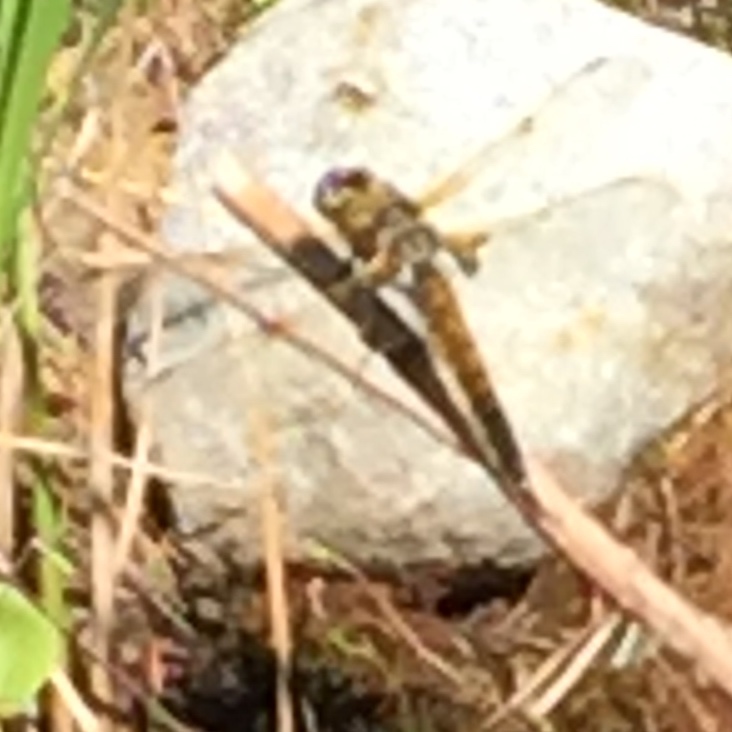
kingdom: Animalia
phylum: Arthropoda
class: Insecta
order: Odonata
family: Libellulidae
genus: Libellula
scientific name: Libellula quadrimaculata
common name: Four-spotted chaser
